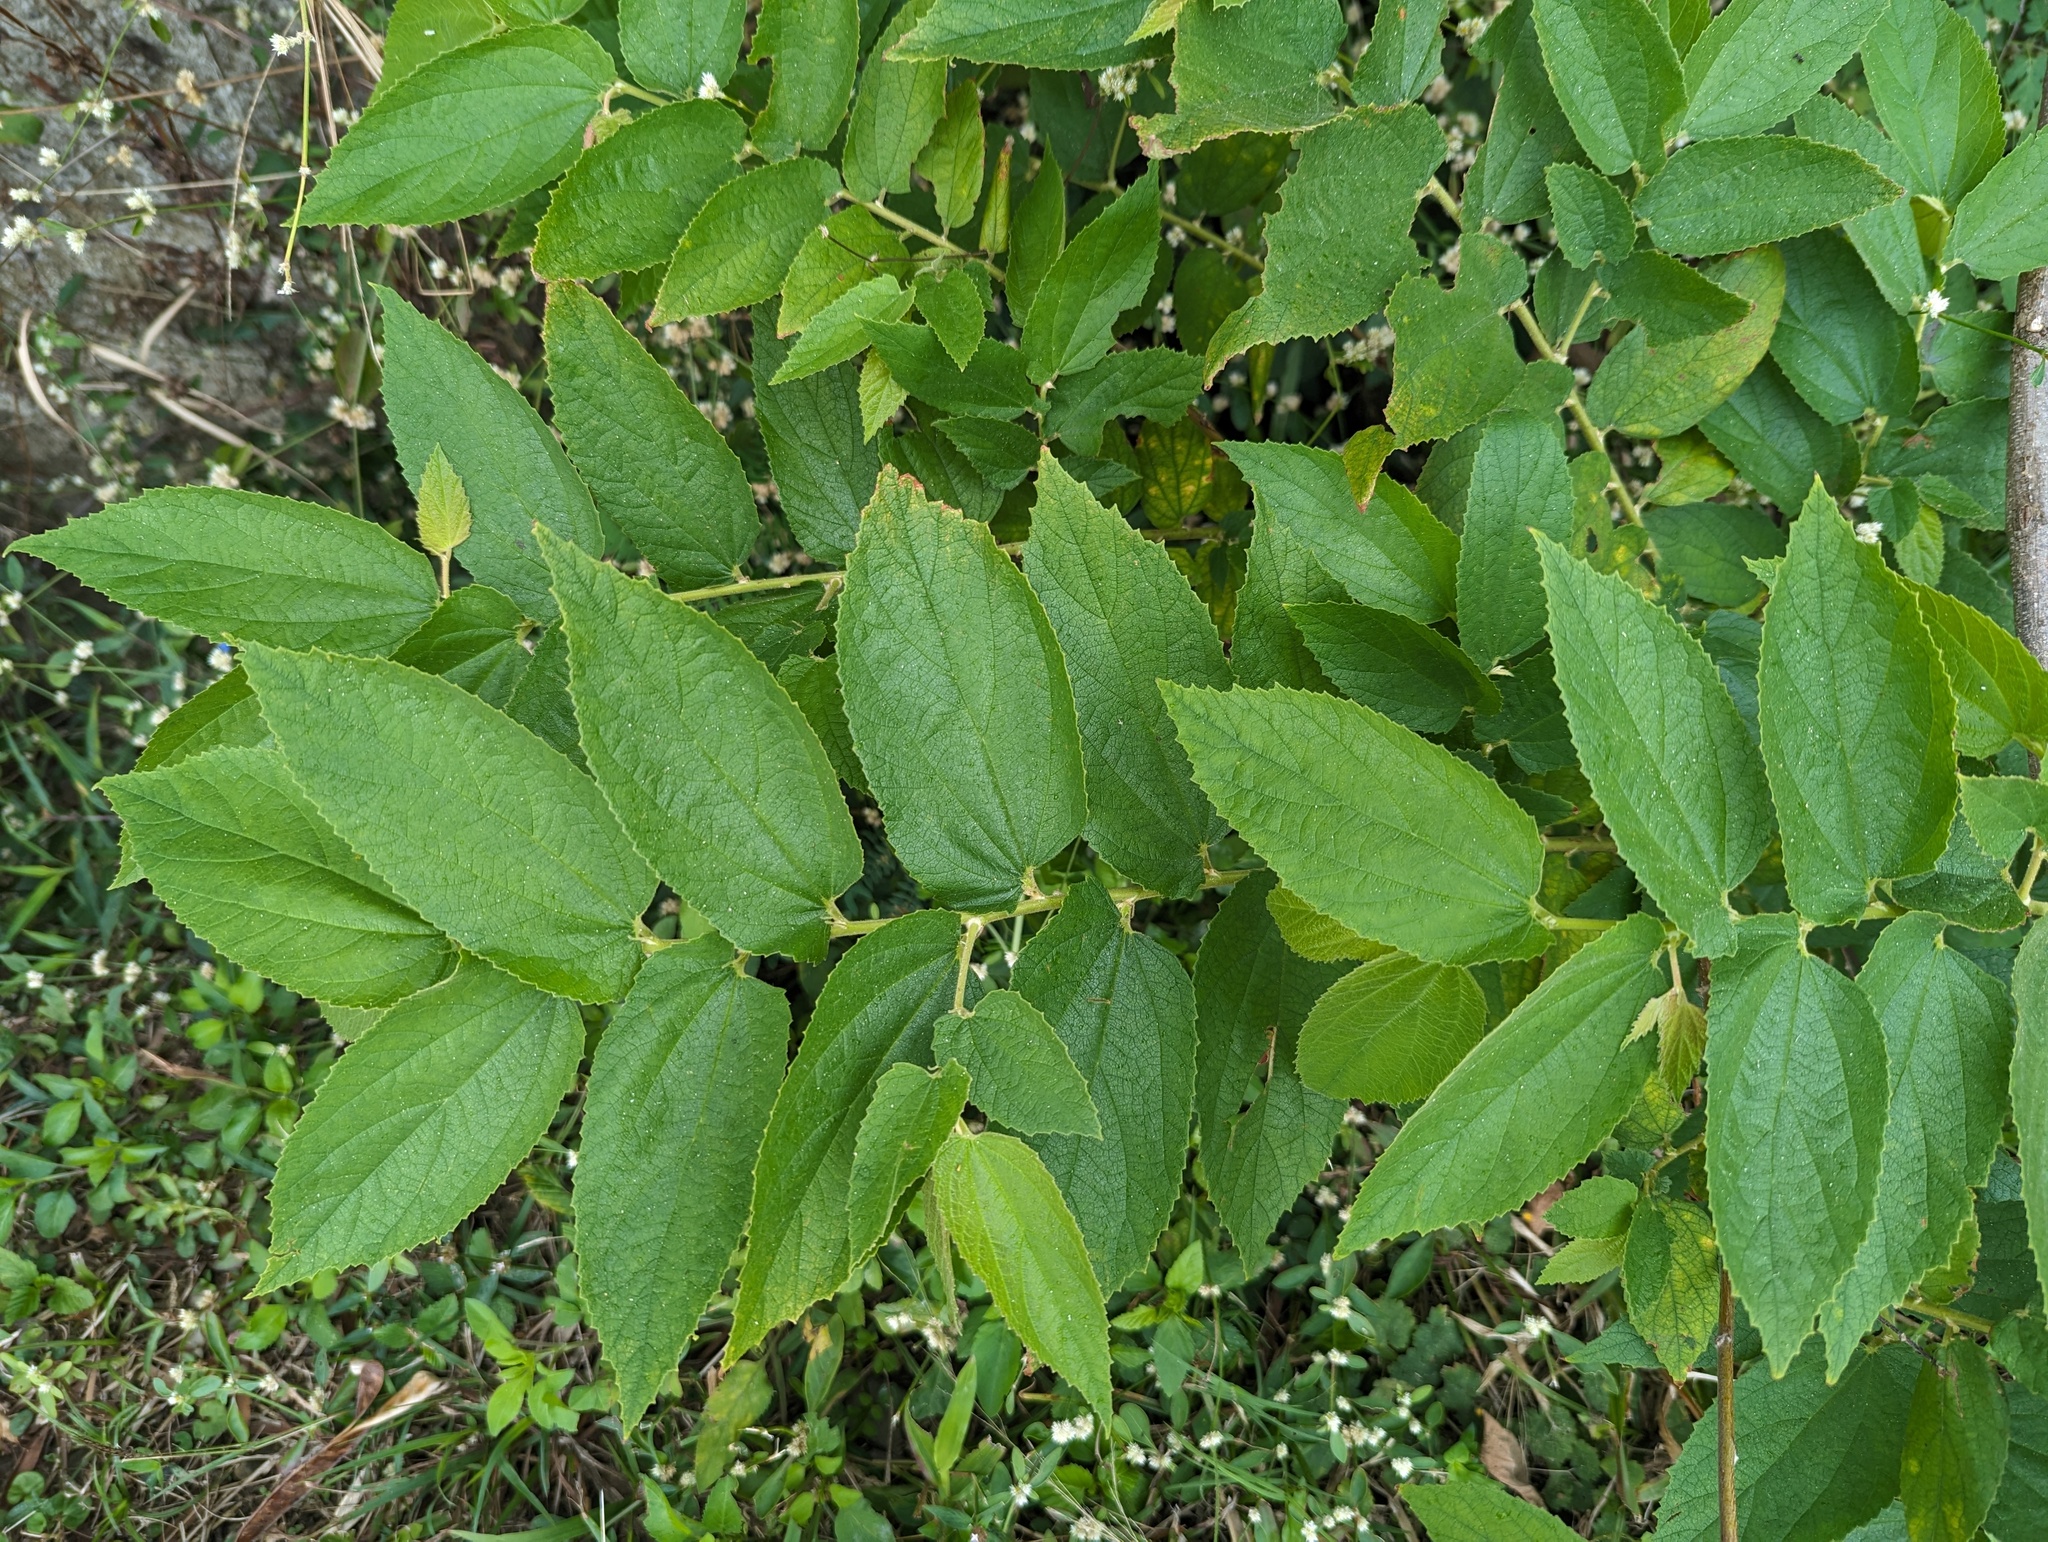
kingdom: Plantae
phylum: Tracheophyta
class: Magnoliopsida
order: Malvales
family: Muntingiaceae
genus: Muntingia
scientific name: Muntingia calabura
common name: Strawberrytree
